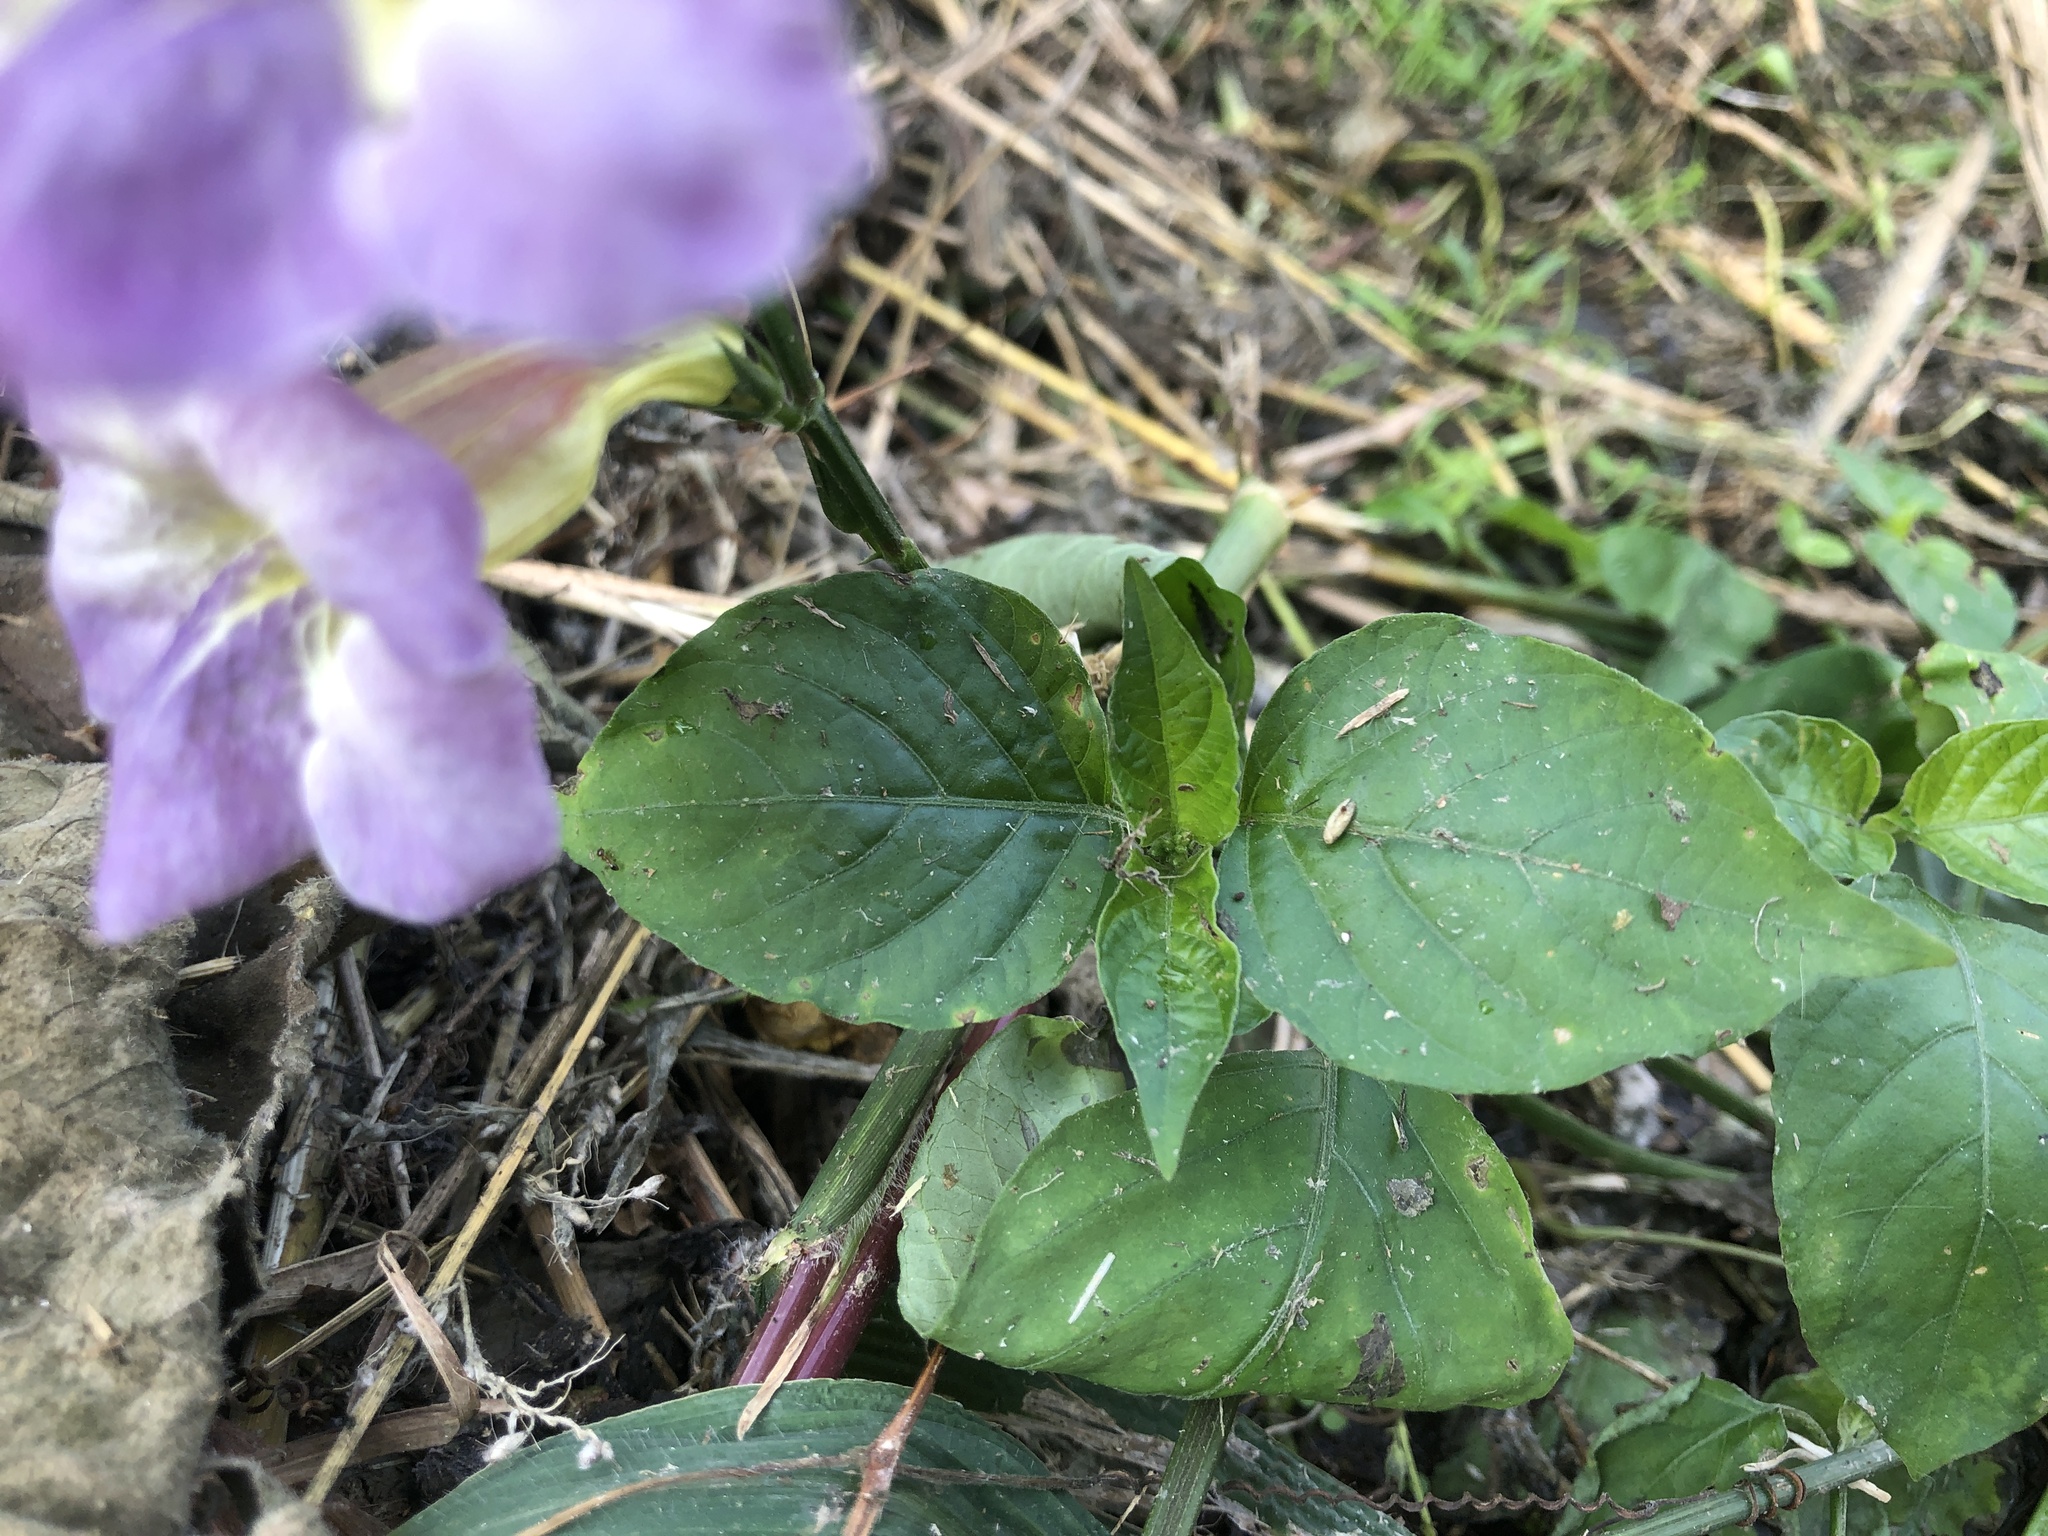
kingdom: Plantae
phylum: Tracheophyta
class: Magnoliopsida
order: Lamiales
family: Acanthaceae
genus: Asystasia
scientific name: Asystasia gangetica
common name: Chinese violet
